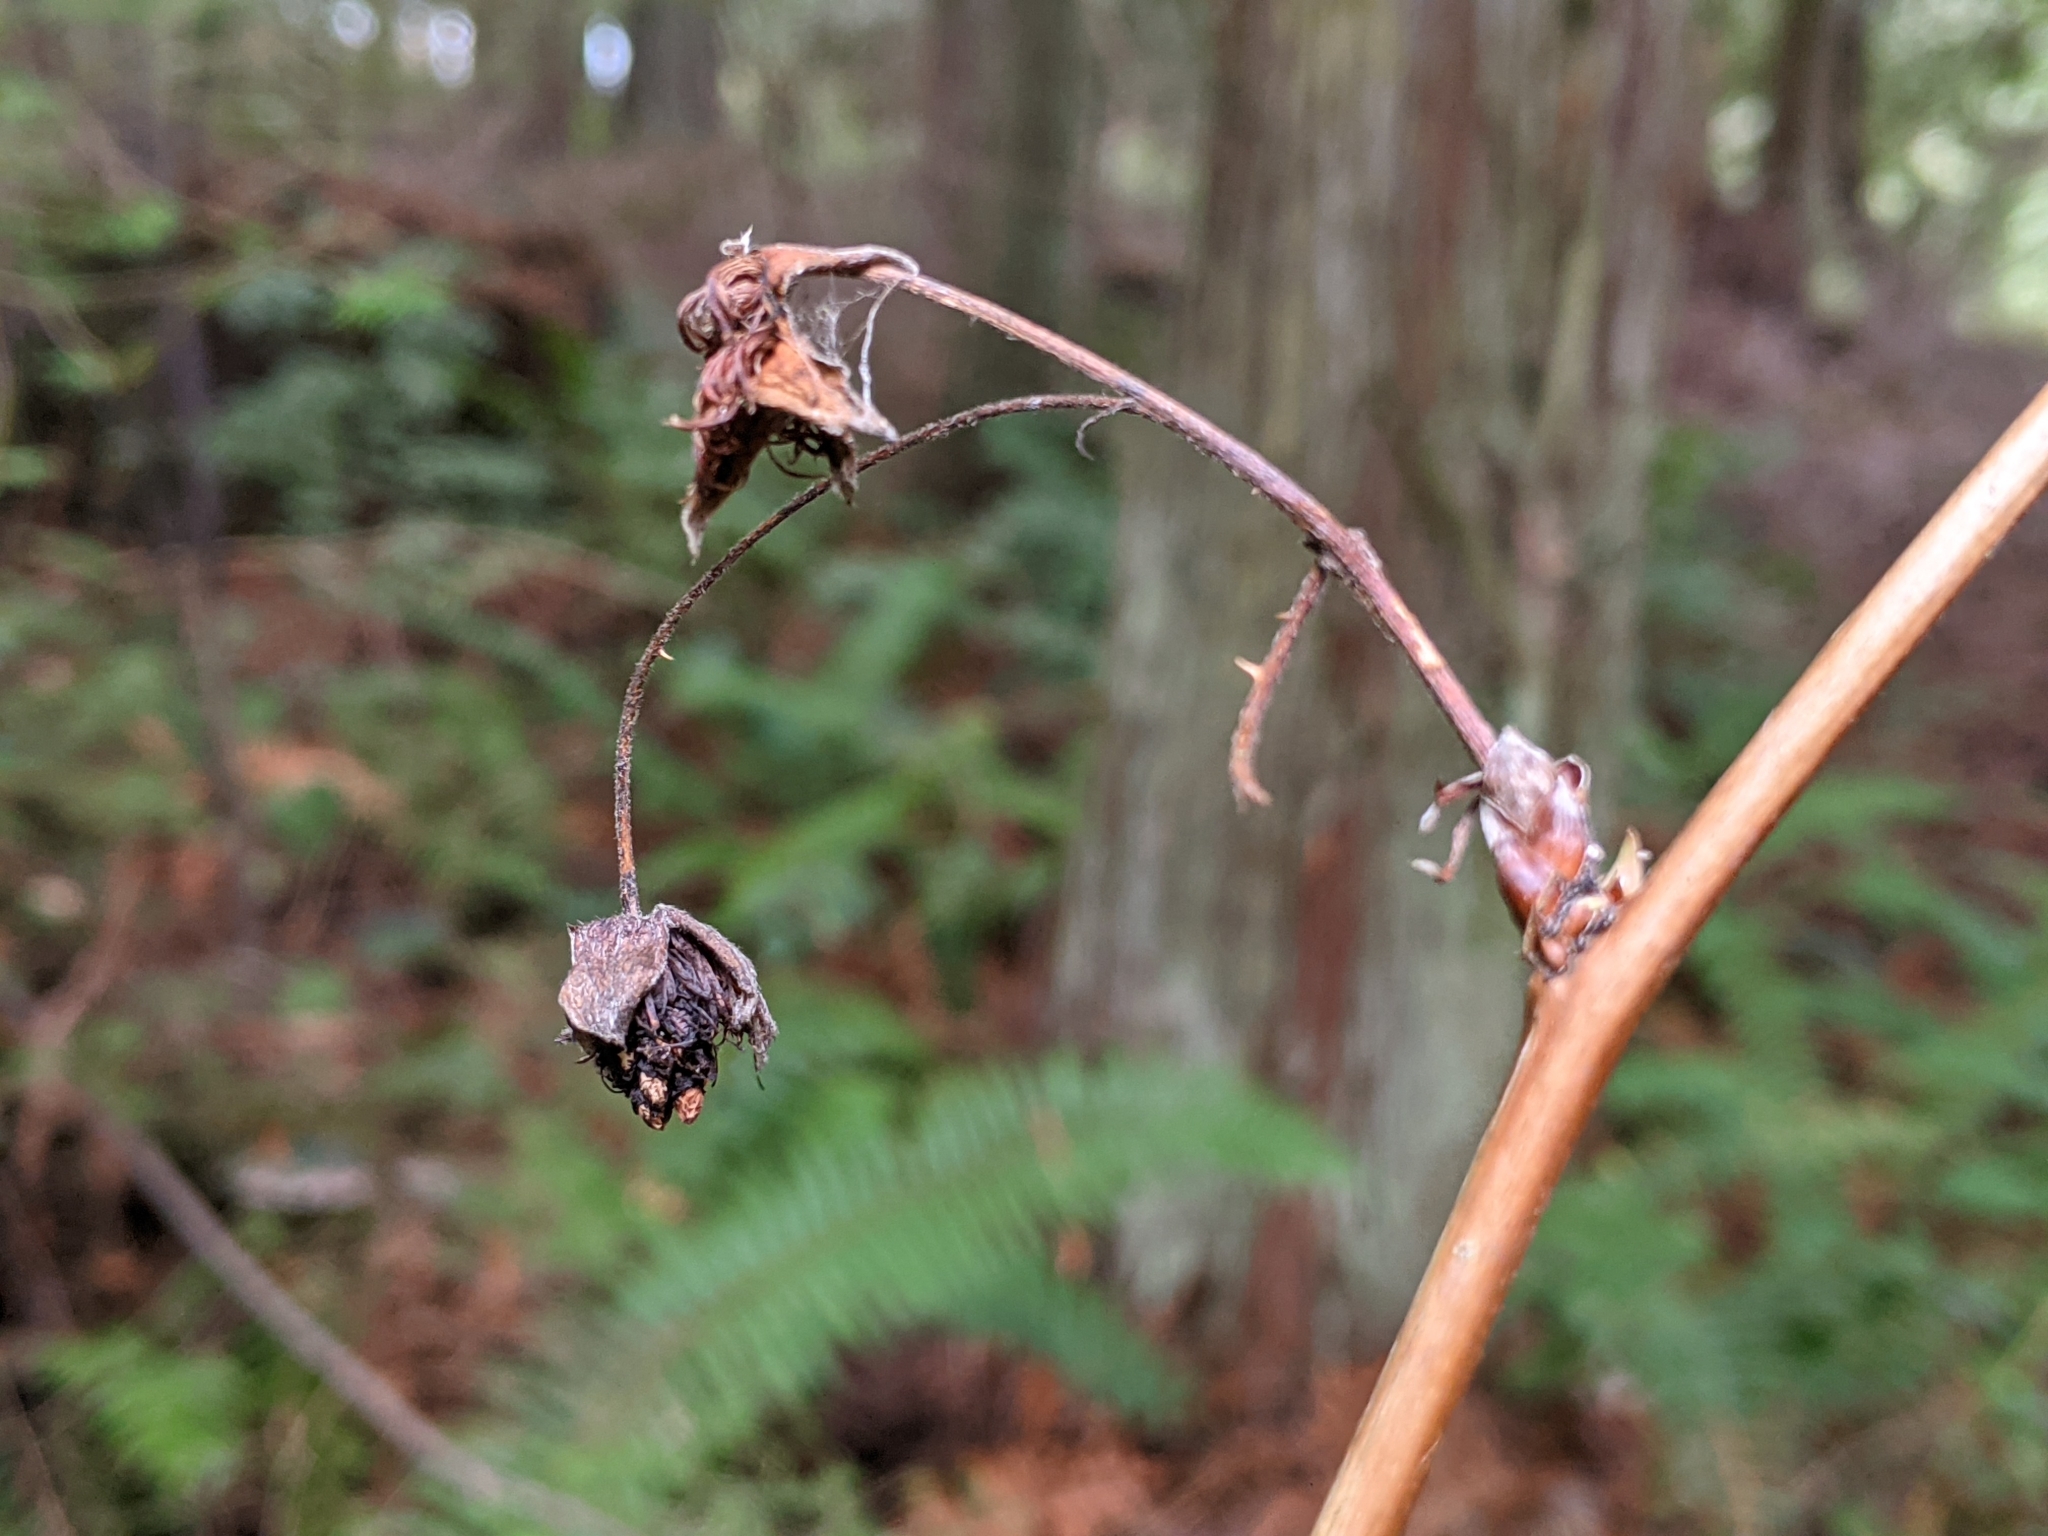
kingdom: Plantae
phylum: Tracheophyta
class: Magnoliopsida
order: Rosales
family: Rosaceae
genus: Rubus
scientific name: Rubus spectabilis
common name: Salmonberry
